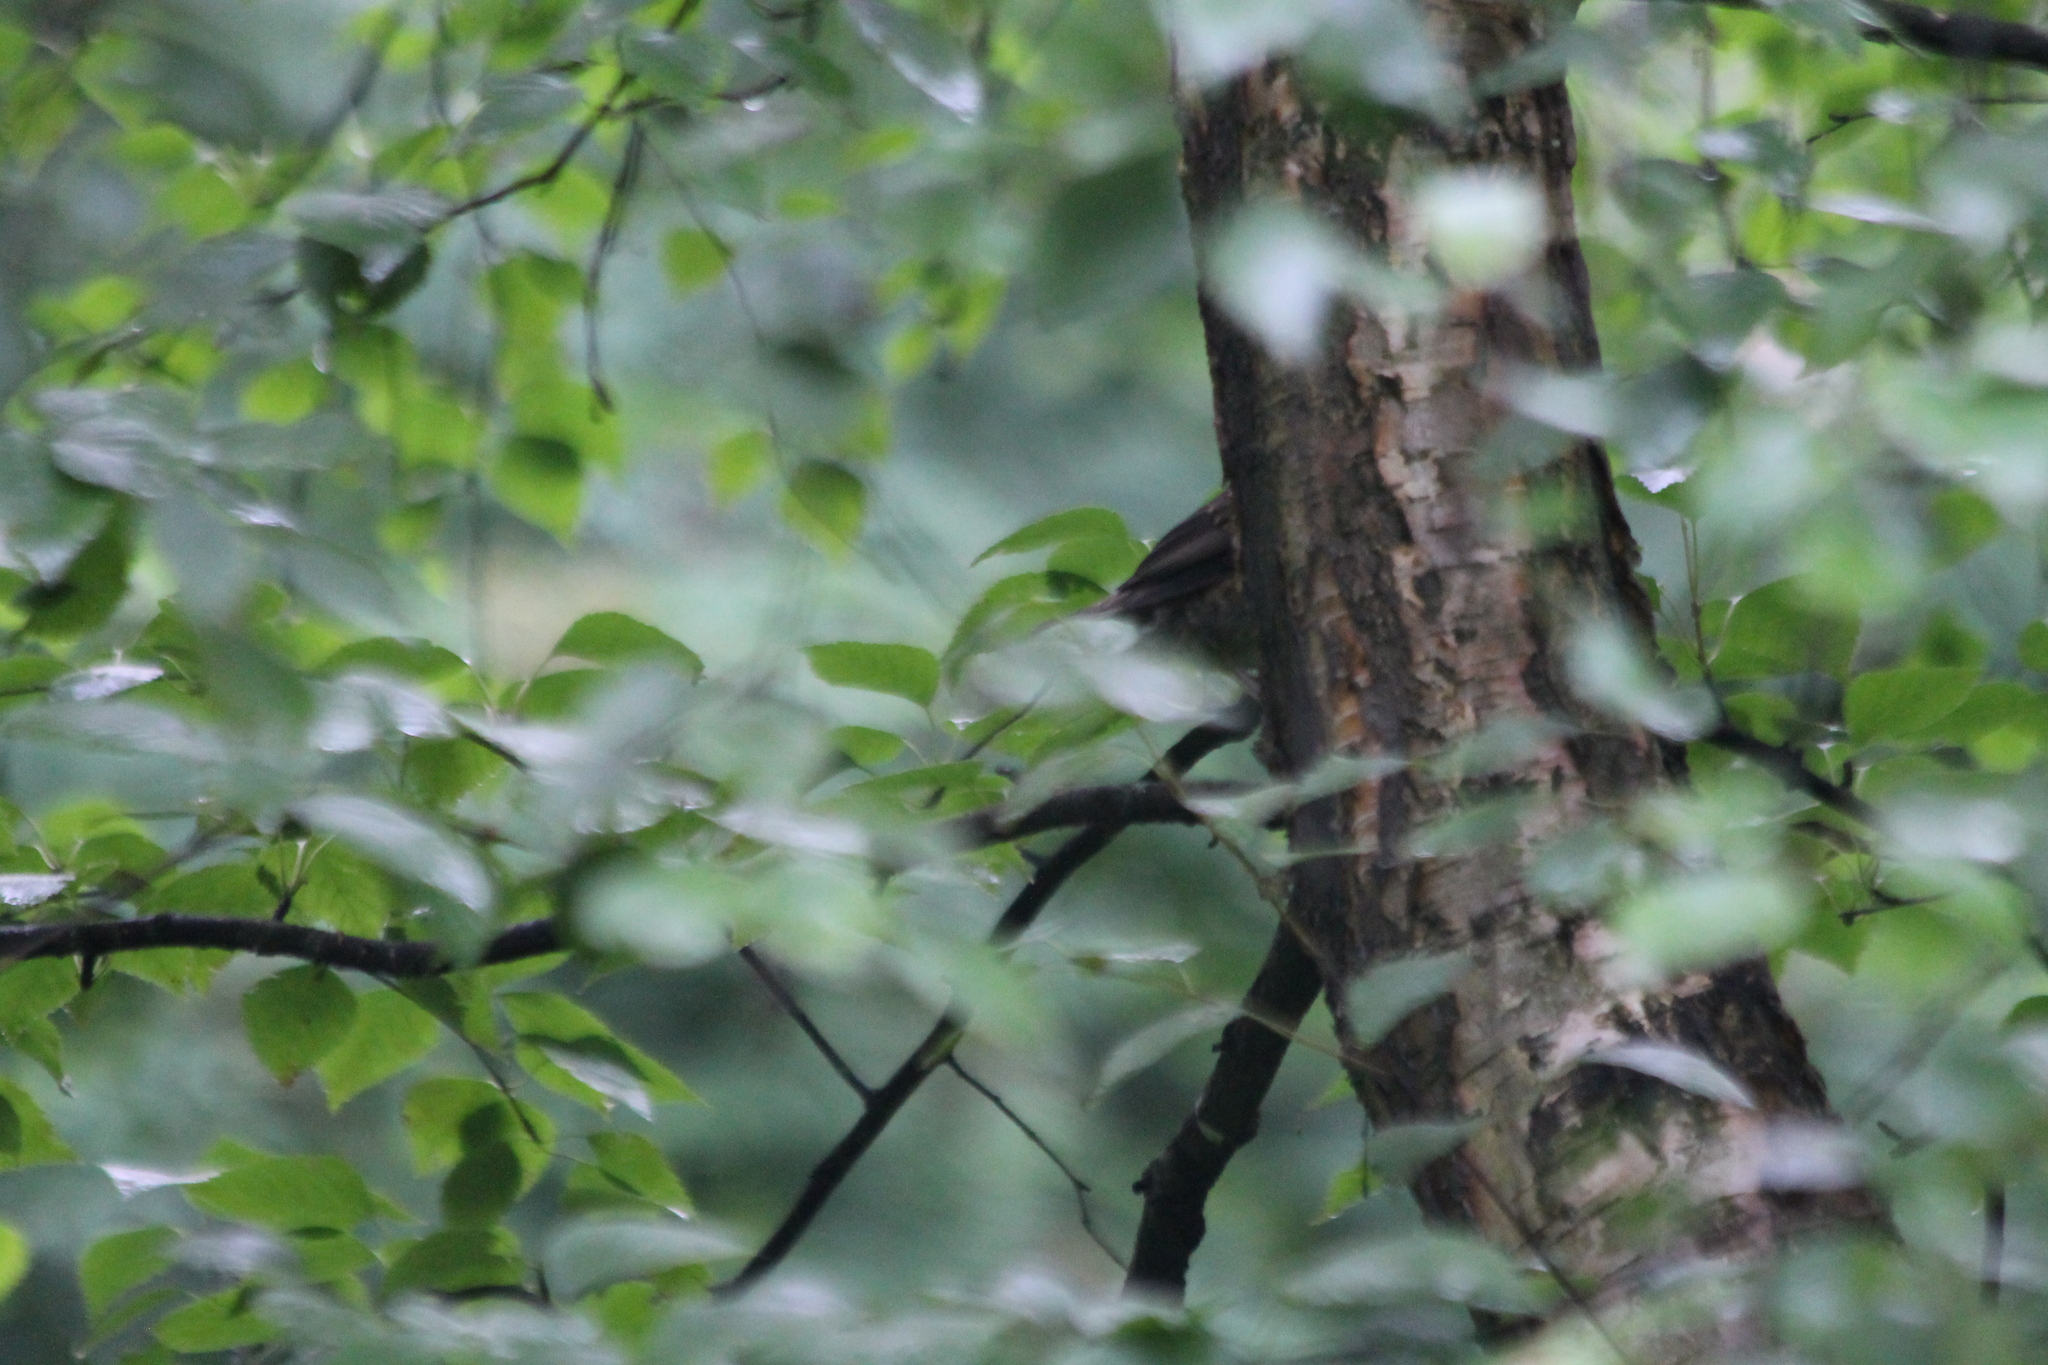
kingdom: Animalia
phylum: Chordata
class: Aves
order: Passeriformes
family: Turdidae
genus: Turdus
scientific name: Turdus iliacus
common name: Redwing
